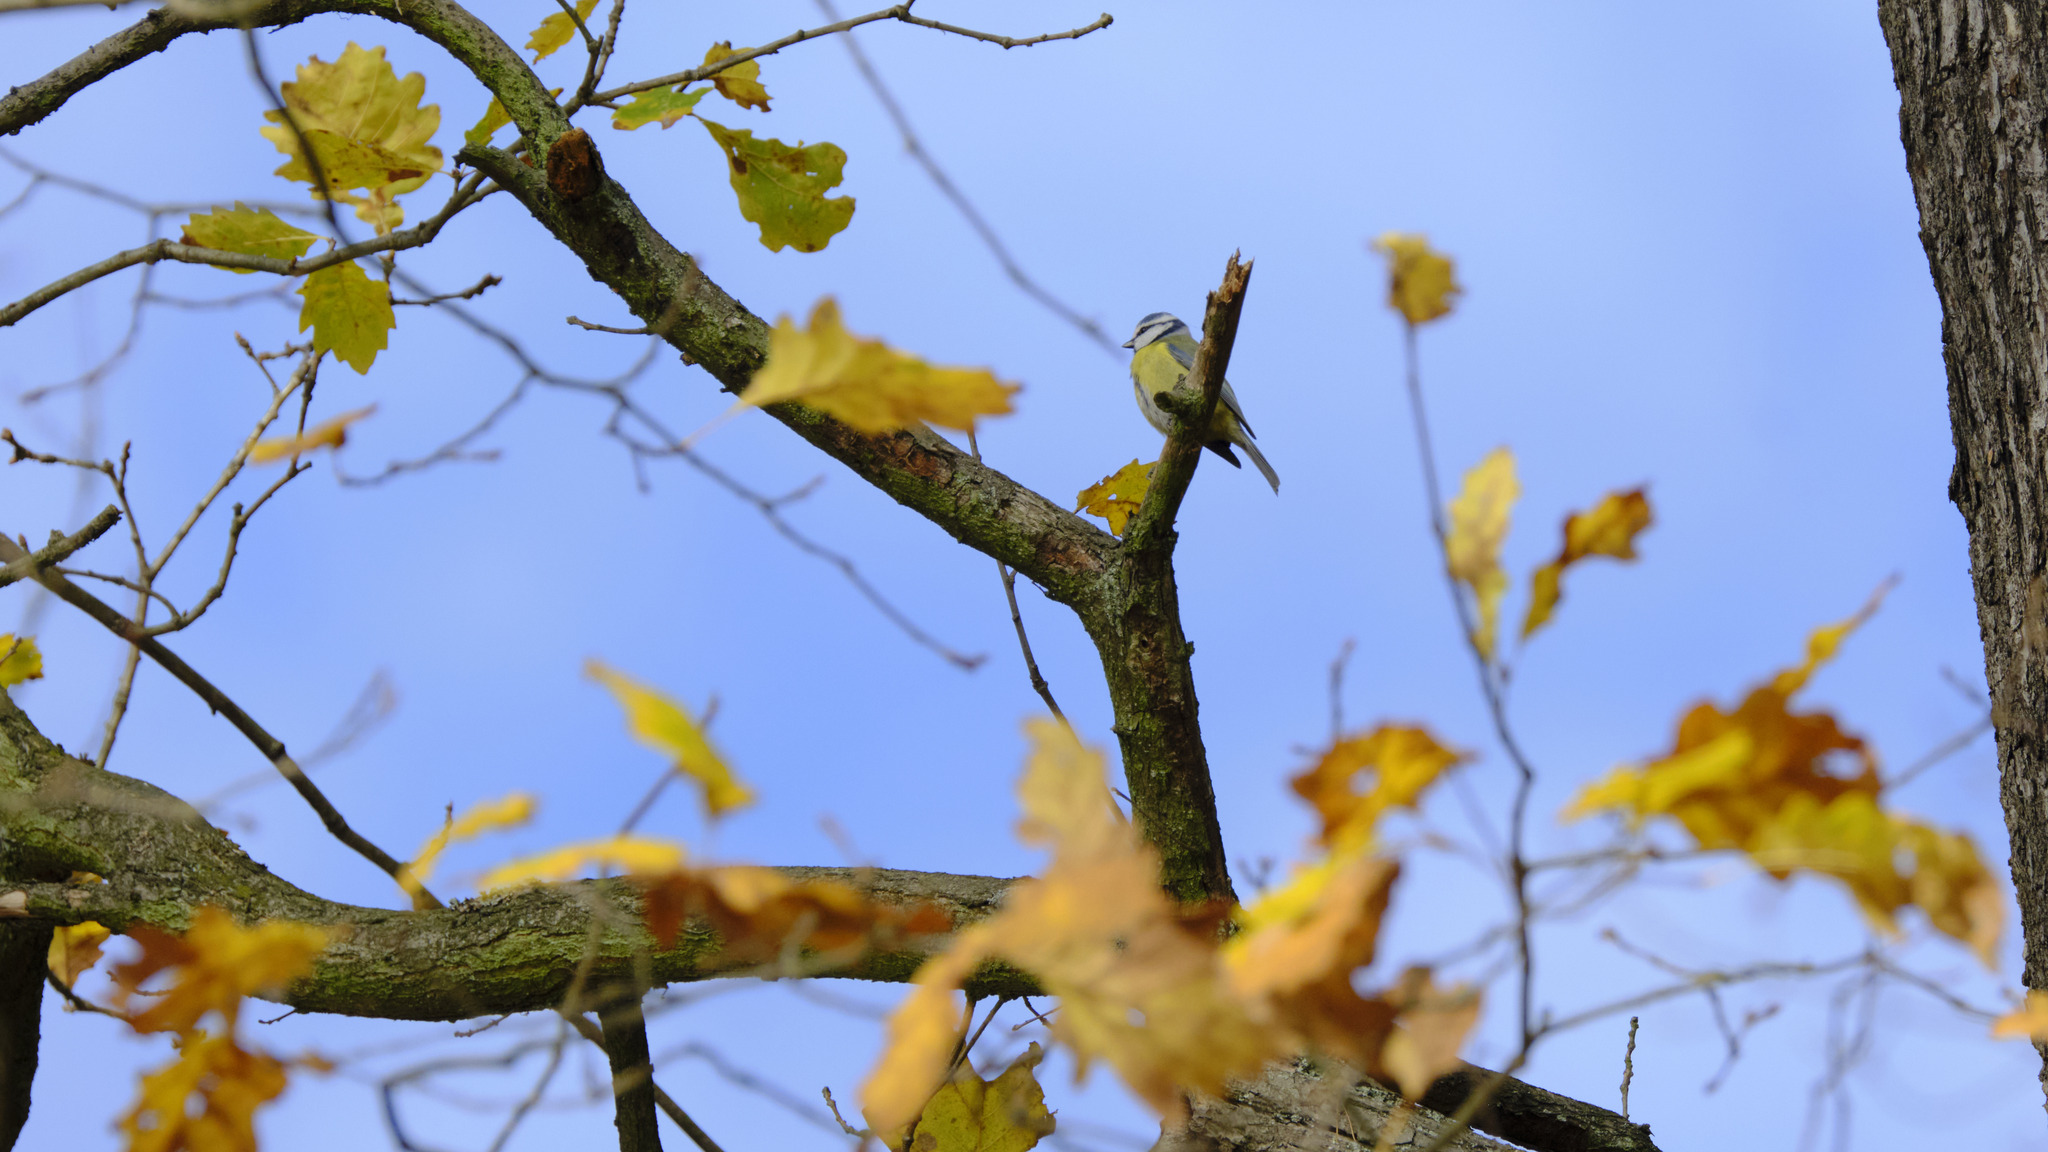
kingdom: Animalia
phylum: Chordata
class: Aves
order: Passeriformes
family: Paridae
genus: Cyanistes
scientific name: Cyanistes caeruleus
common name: Eurasian blue tit
